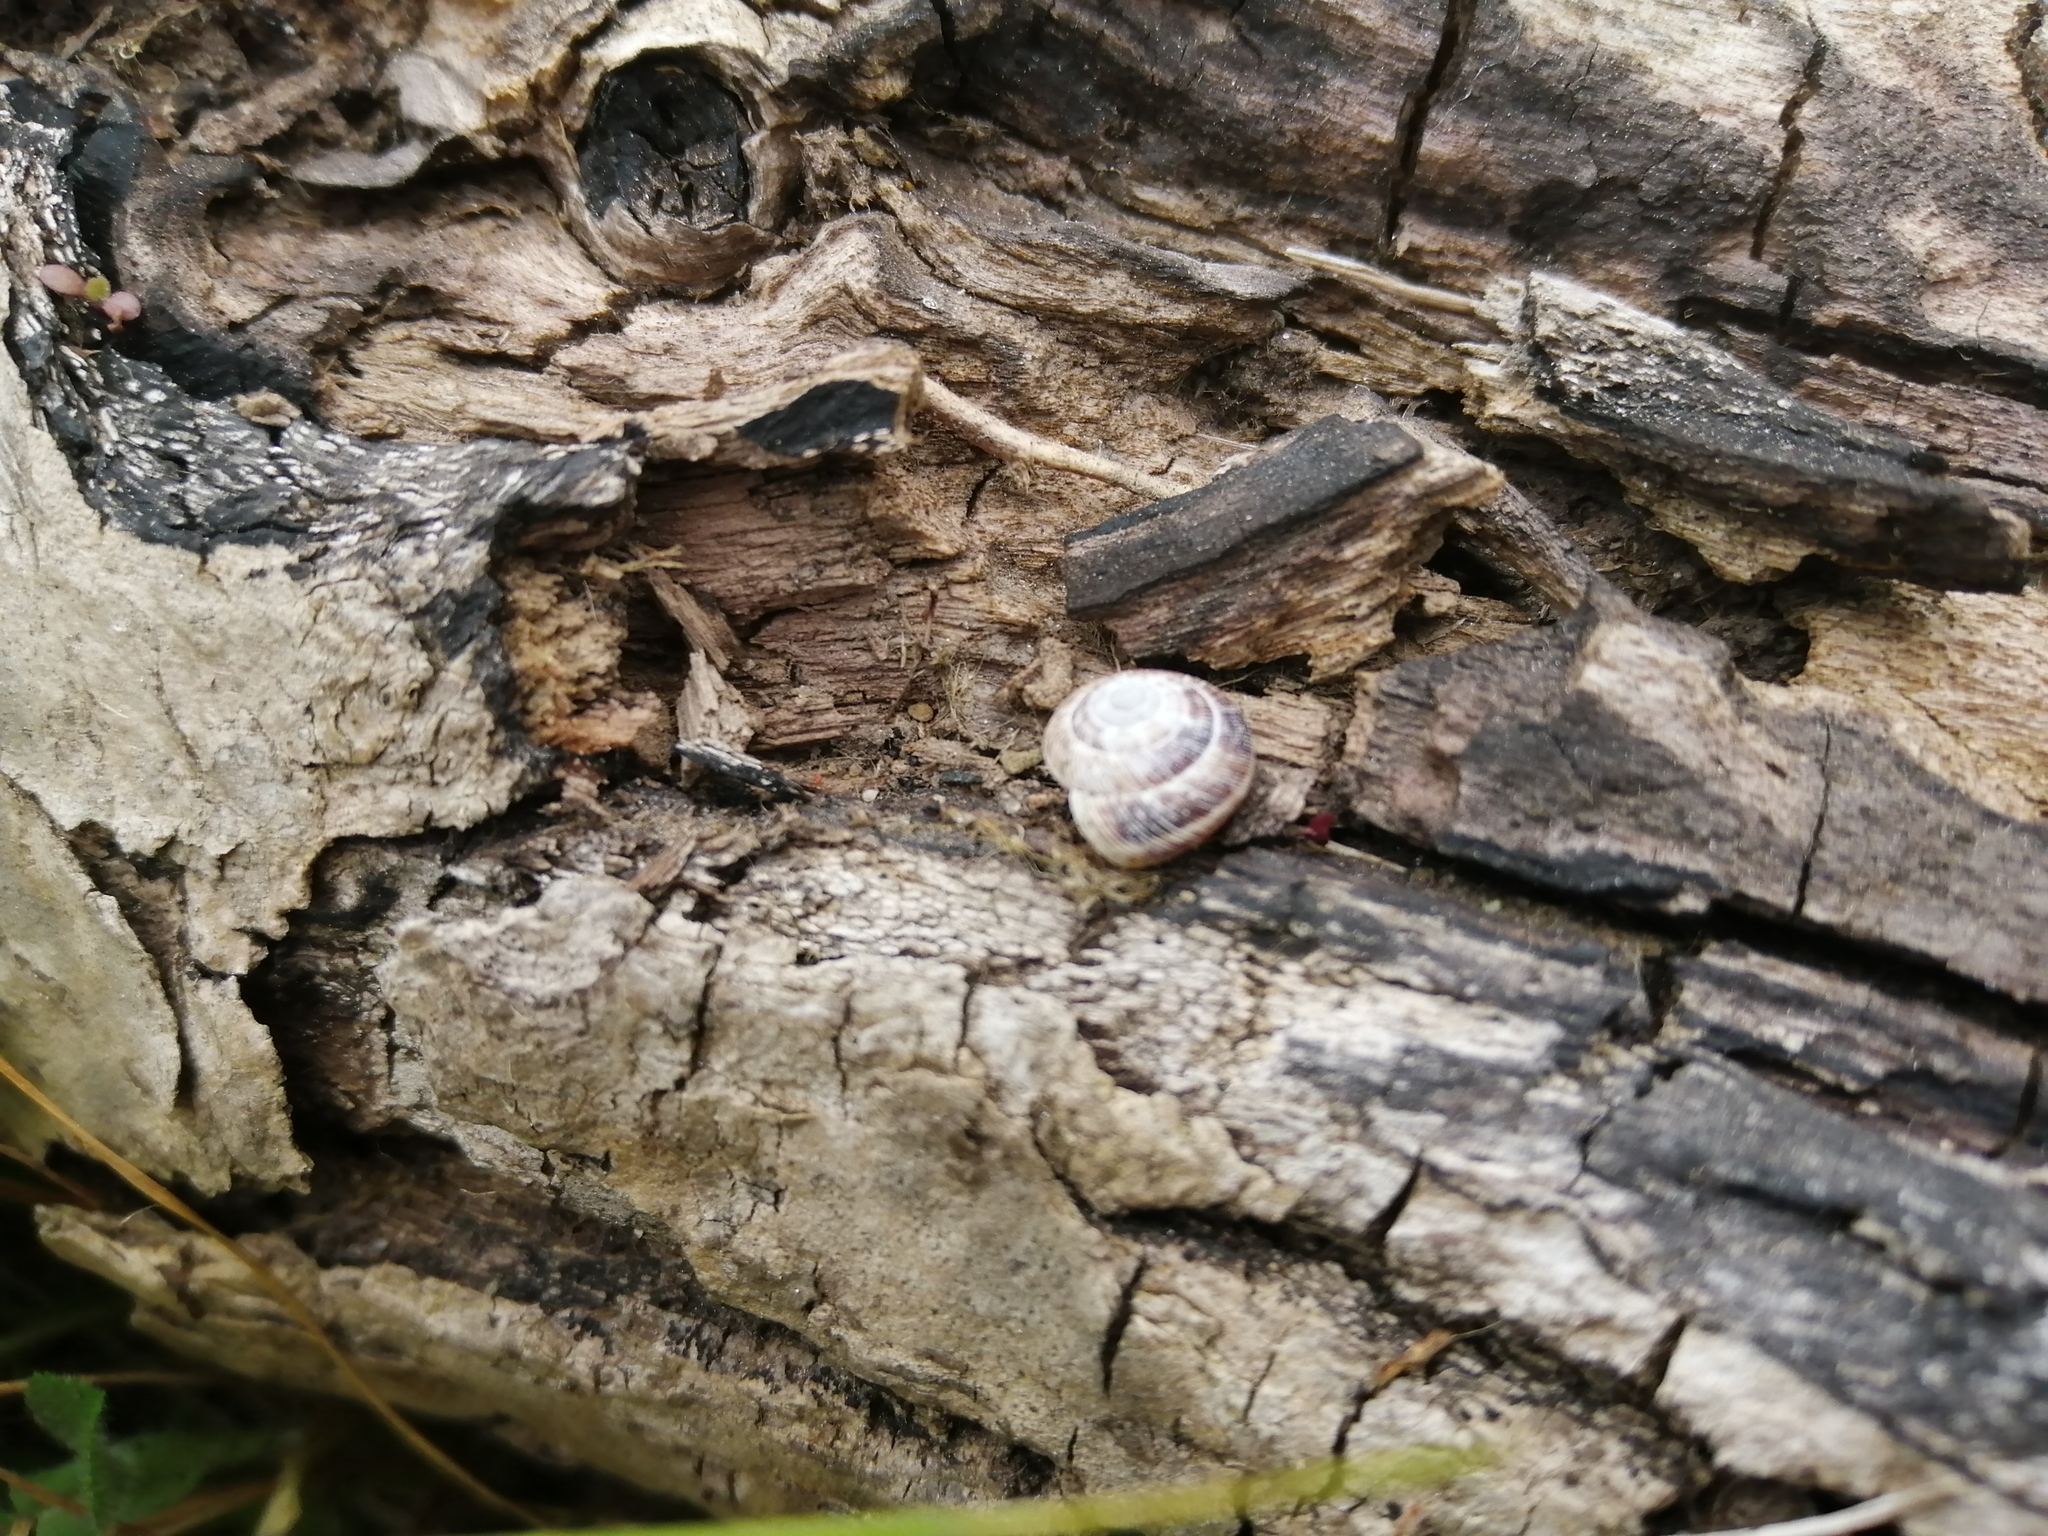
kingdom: Animalia
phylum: Mollusca
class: Gastropoda
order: Stylommatophora
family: Geomitridae
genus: Xeroplexa
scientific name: Xeroplexa intersecta
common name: Wrinkled snail
